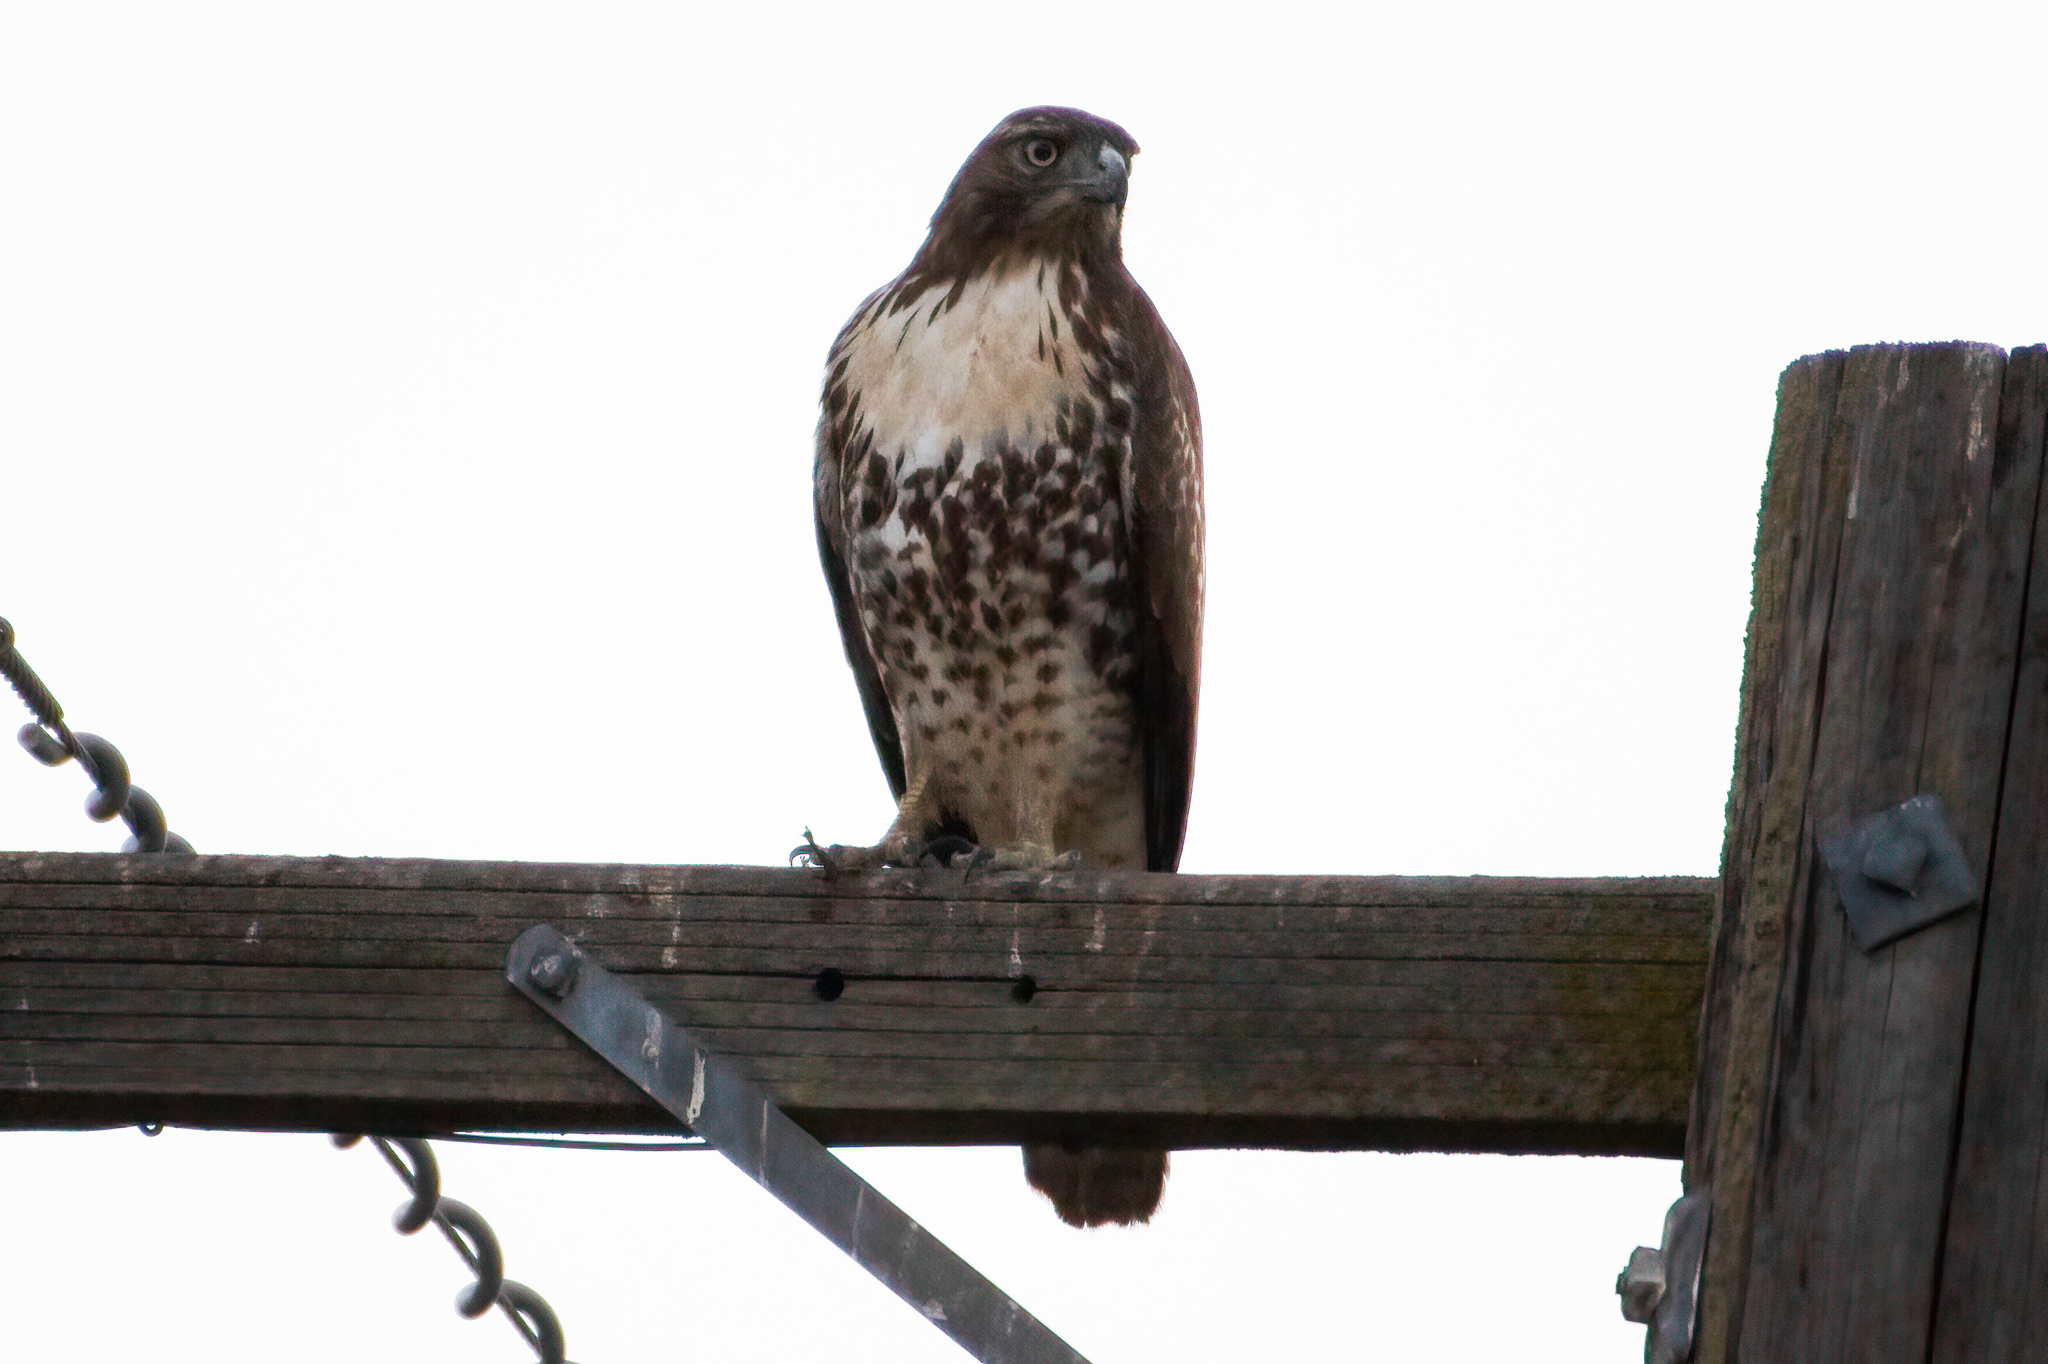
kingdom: Animalia
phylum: Chordata
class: Aves
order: Accipitriformes
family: Accipitridae
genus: Buteo
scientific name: Buteo jamaicensis
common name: Red-tailed hawk
